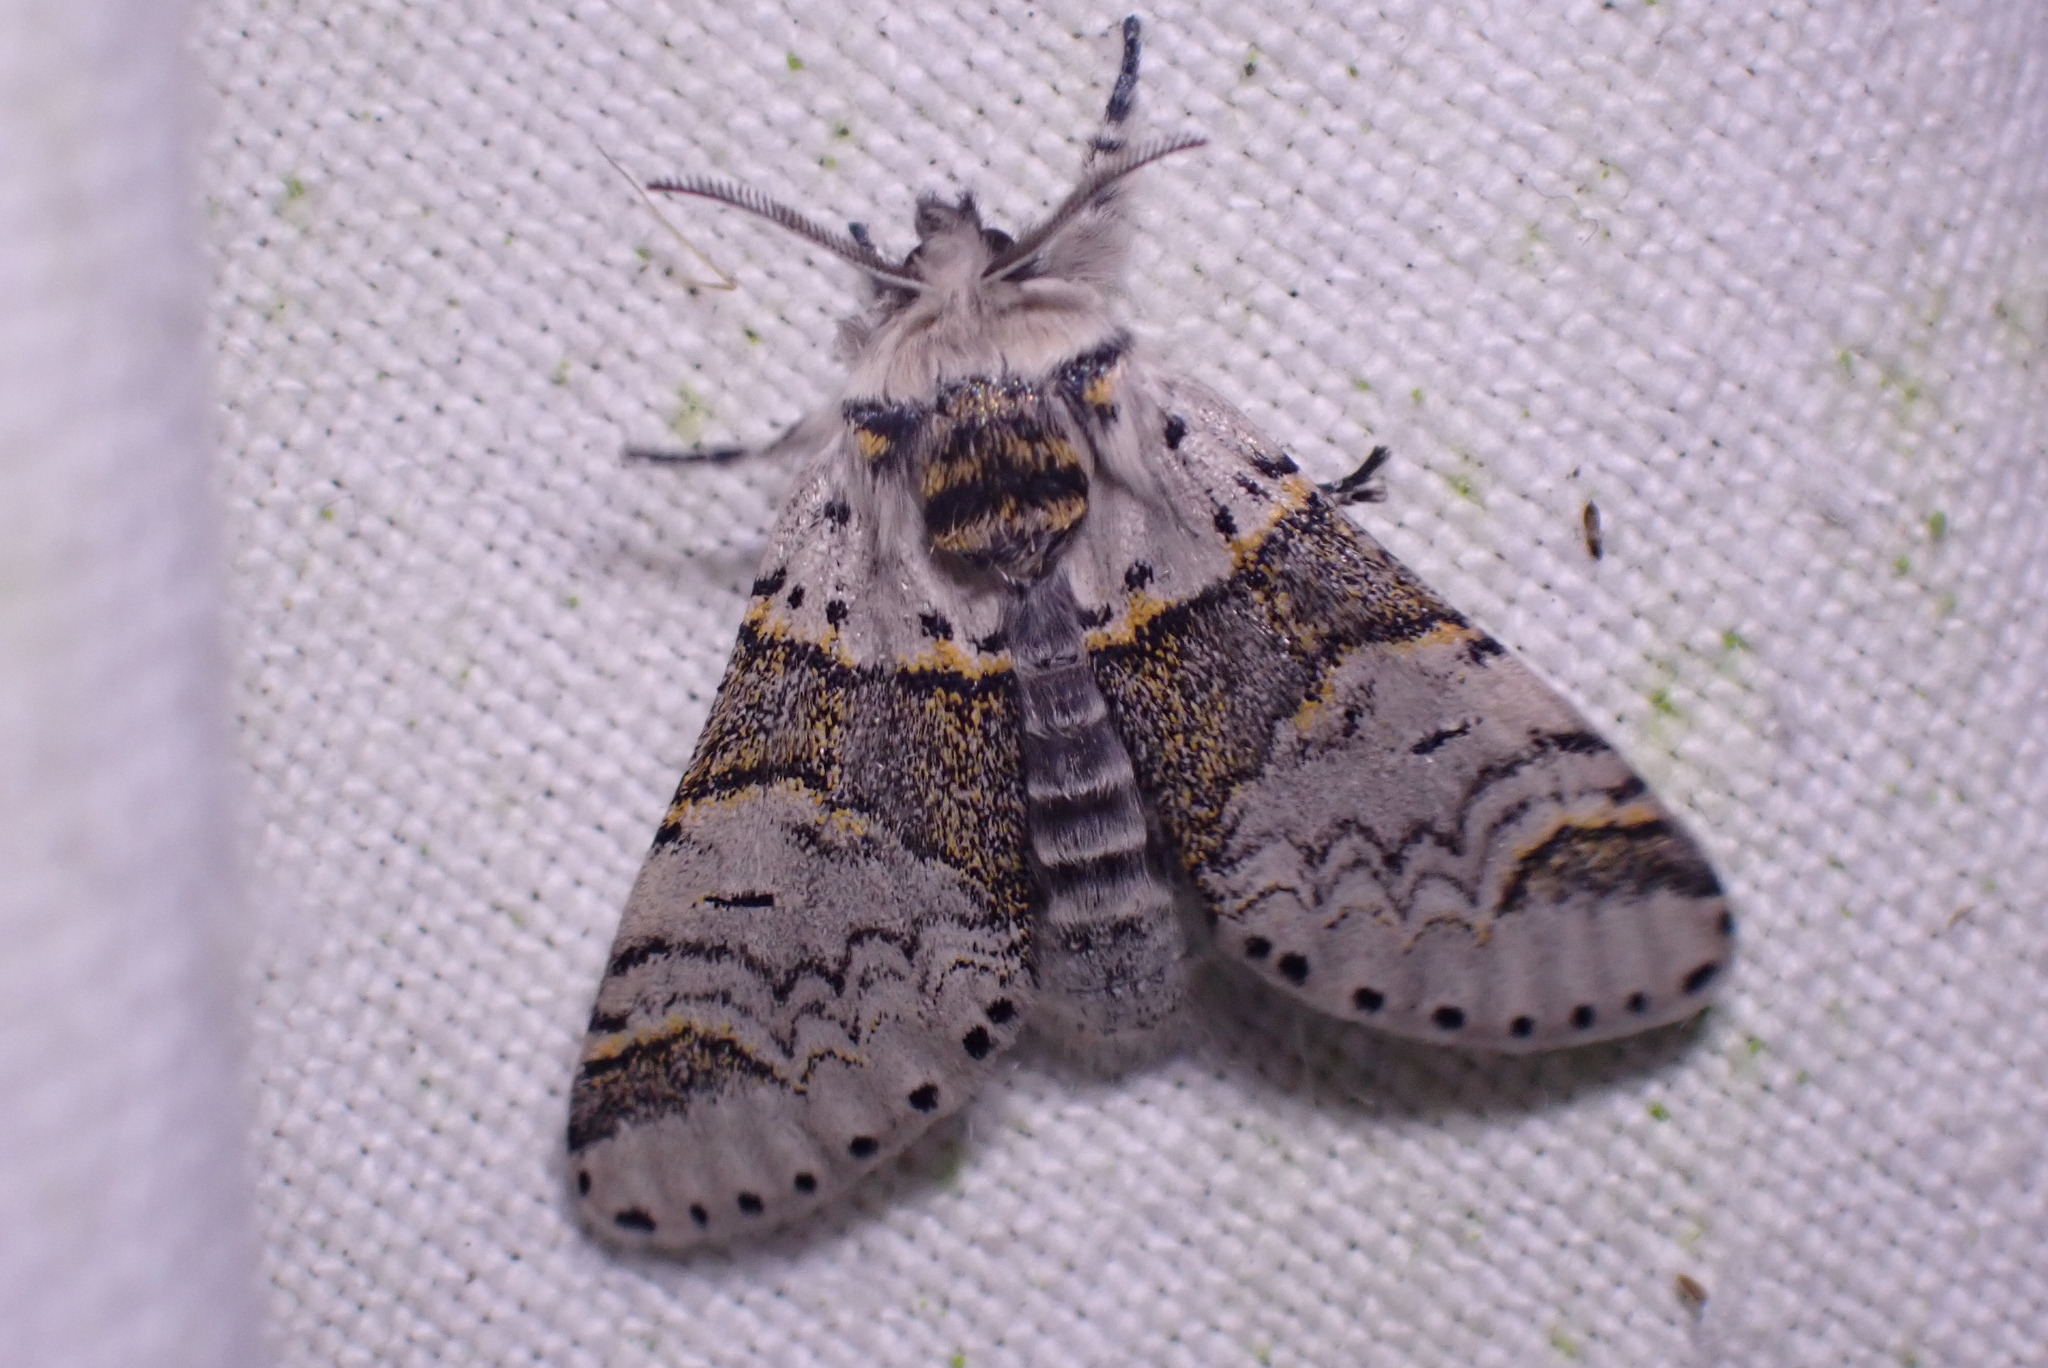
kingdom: Animalia
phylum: Arthropoda
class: Insecta
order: Lepidoptera
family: Notodontidae
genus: Furcula
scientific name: Furcula furcula
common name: Sallow kitten
